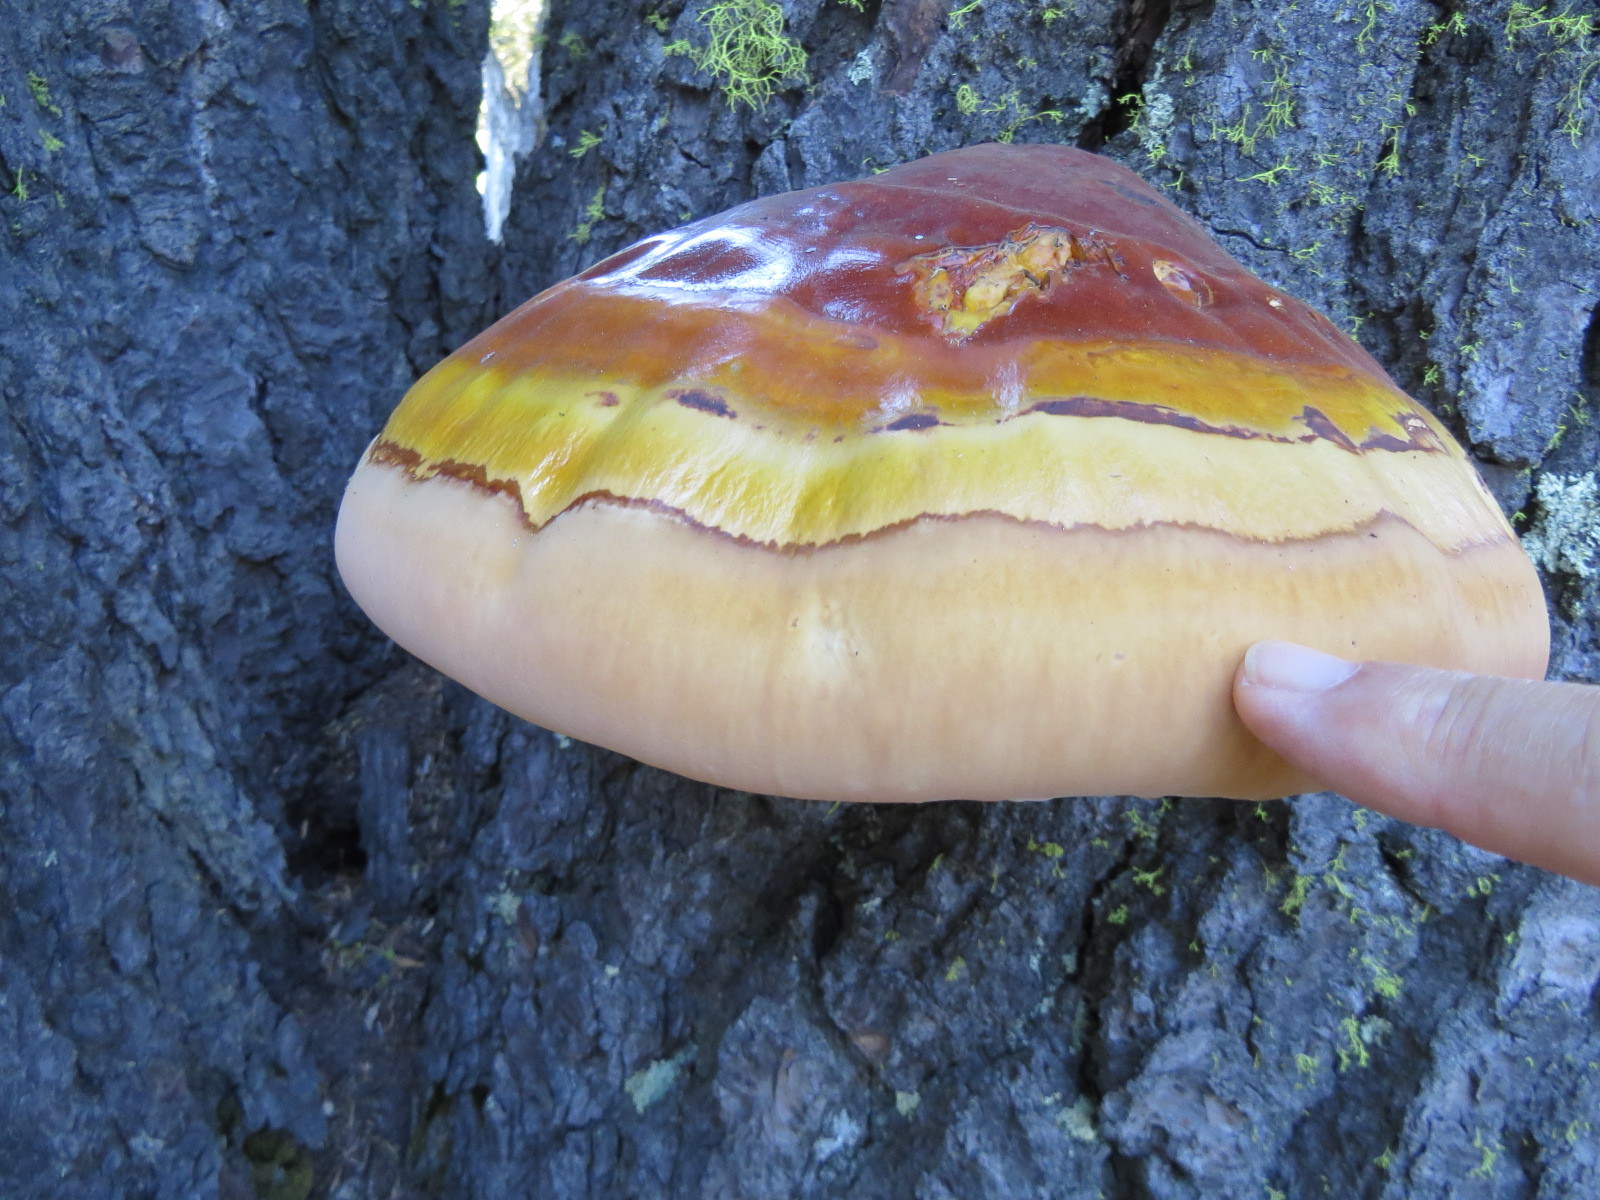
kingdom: Fungi
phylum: Basidiomycota
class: Agaricomycetes
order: Polyporales
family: Polyporaceae
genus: Ganoderma
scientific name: Ganoderma oregonense
